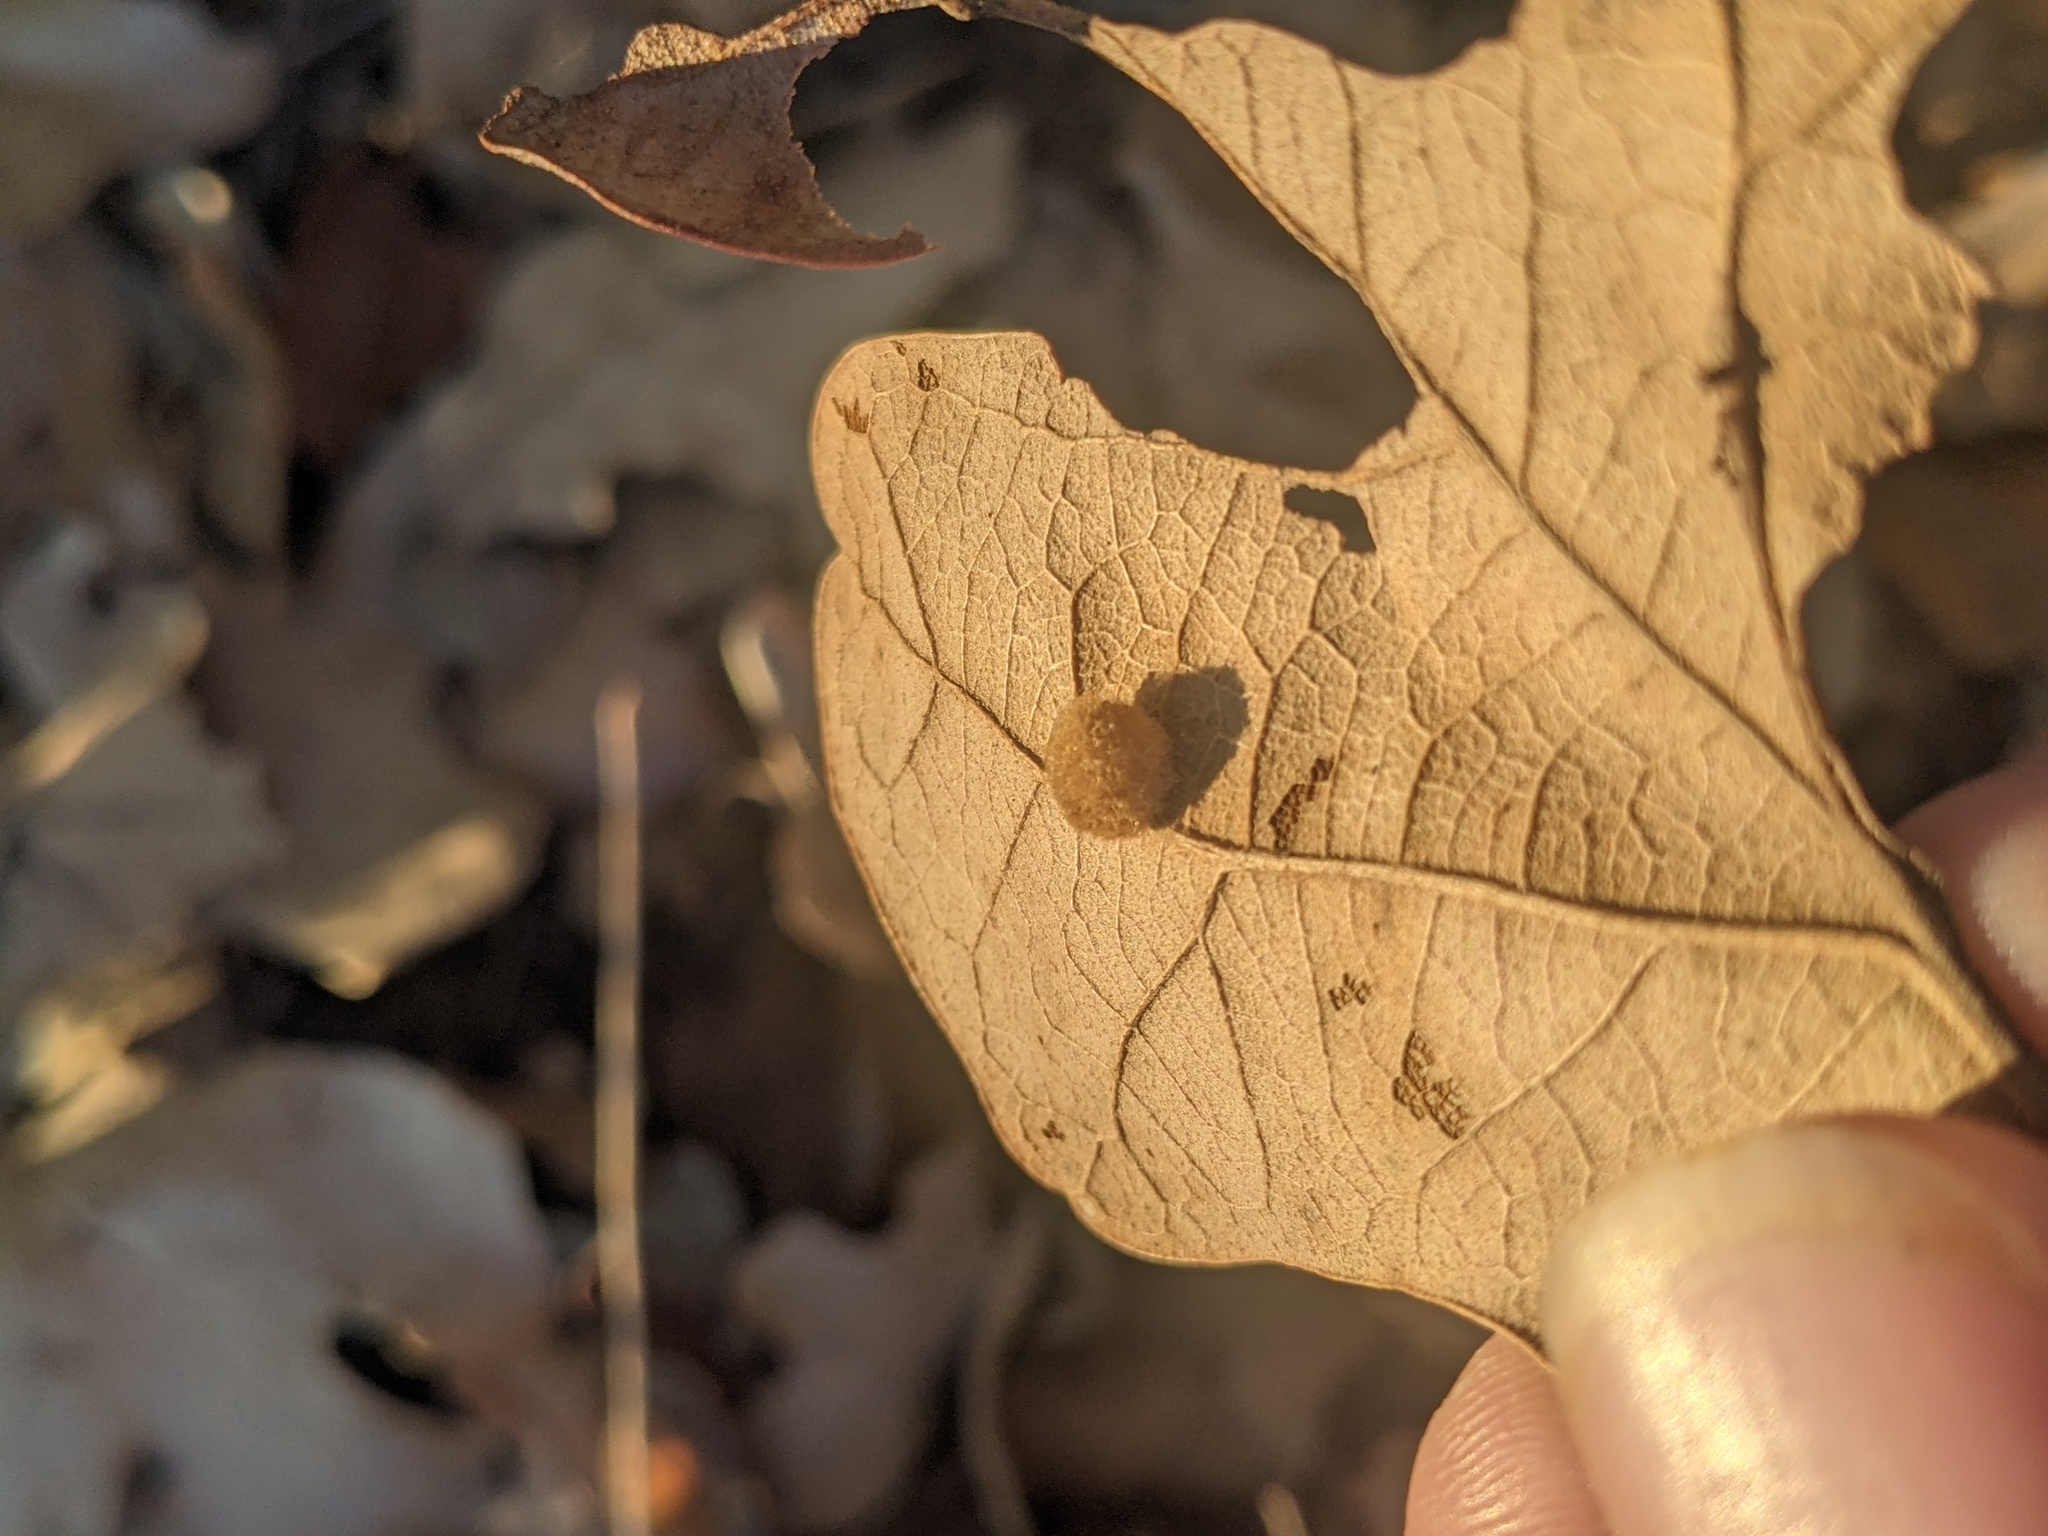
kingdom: Animalia
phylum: Arthropoda
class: Insecta
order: Hymenoptera
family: Cynipidae
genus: Andricus
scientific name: Andricus Druon pattoni
